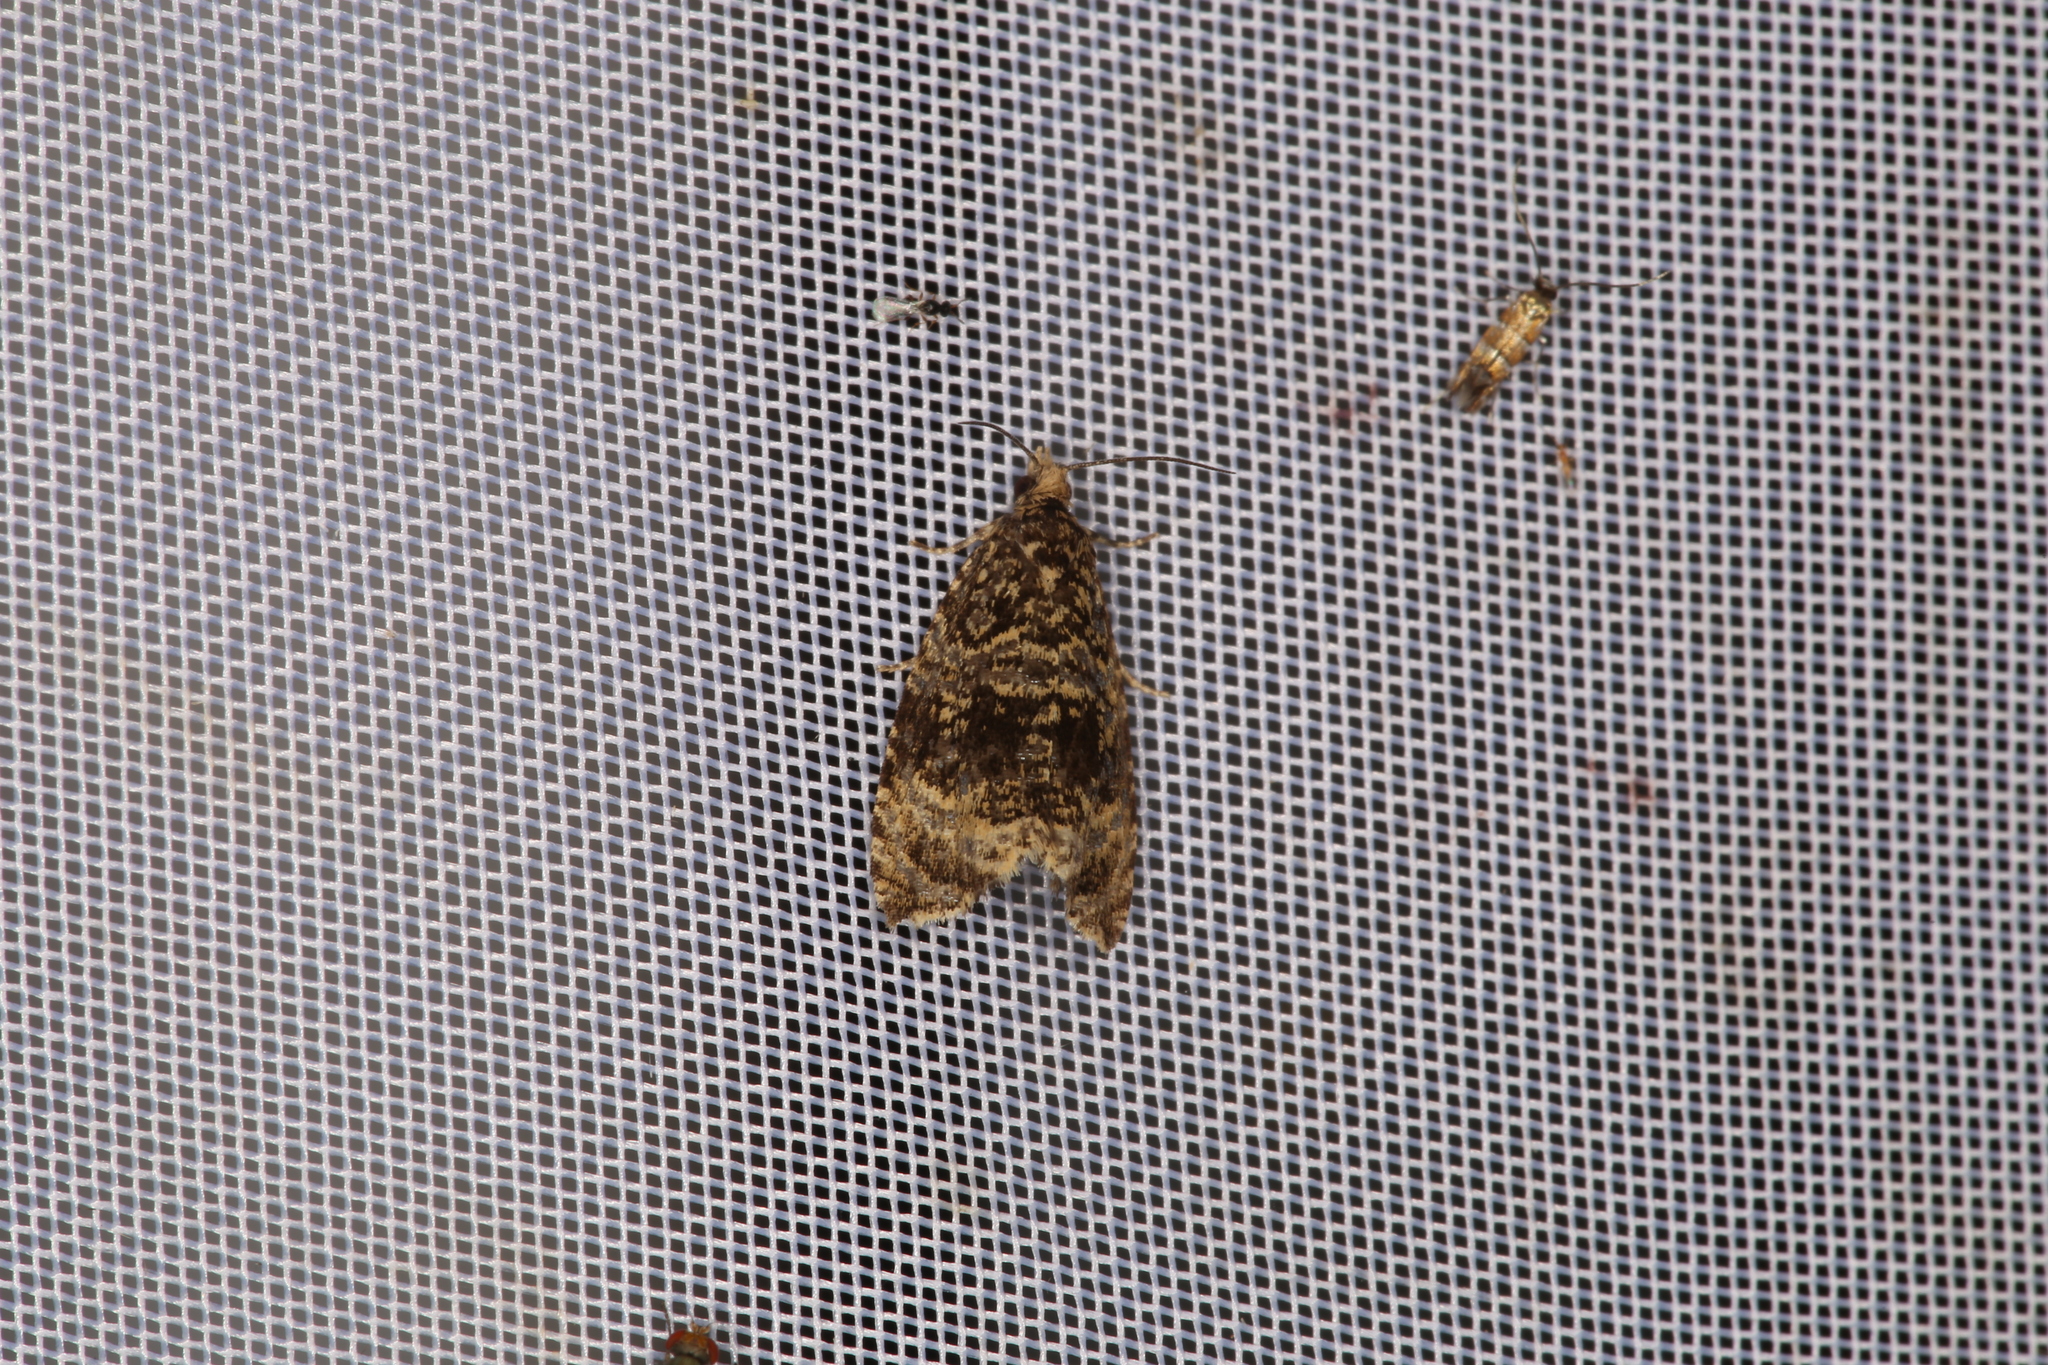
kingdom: Animalia
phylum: Arthropoda
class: Insecta
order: Lepidoptera
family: Tortricidae
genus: Syricoris
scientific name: Syricoris lacunana
